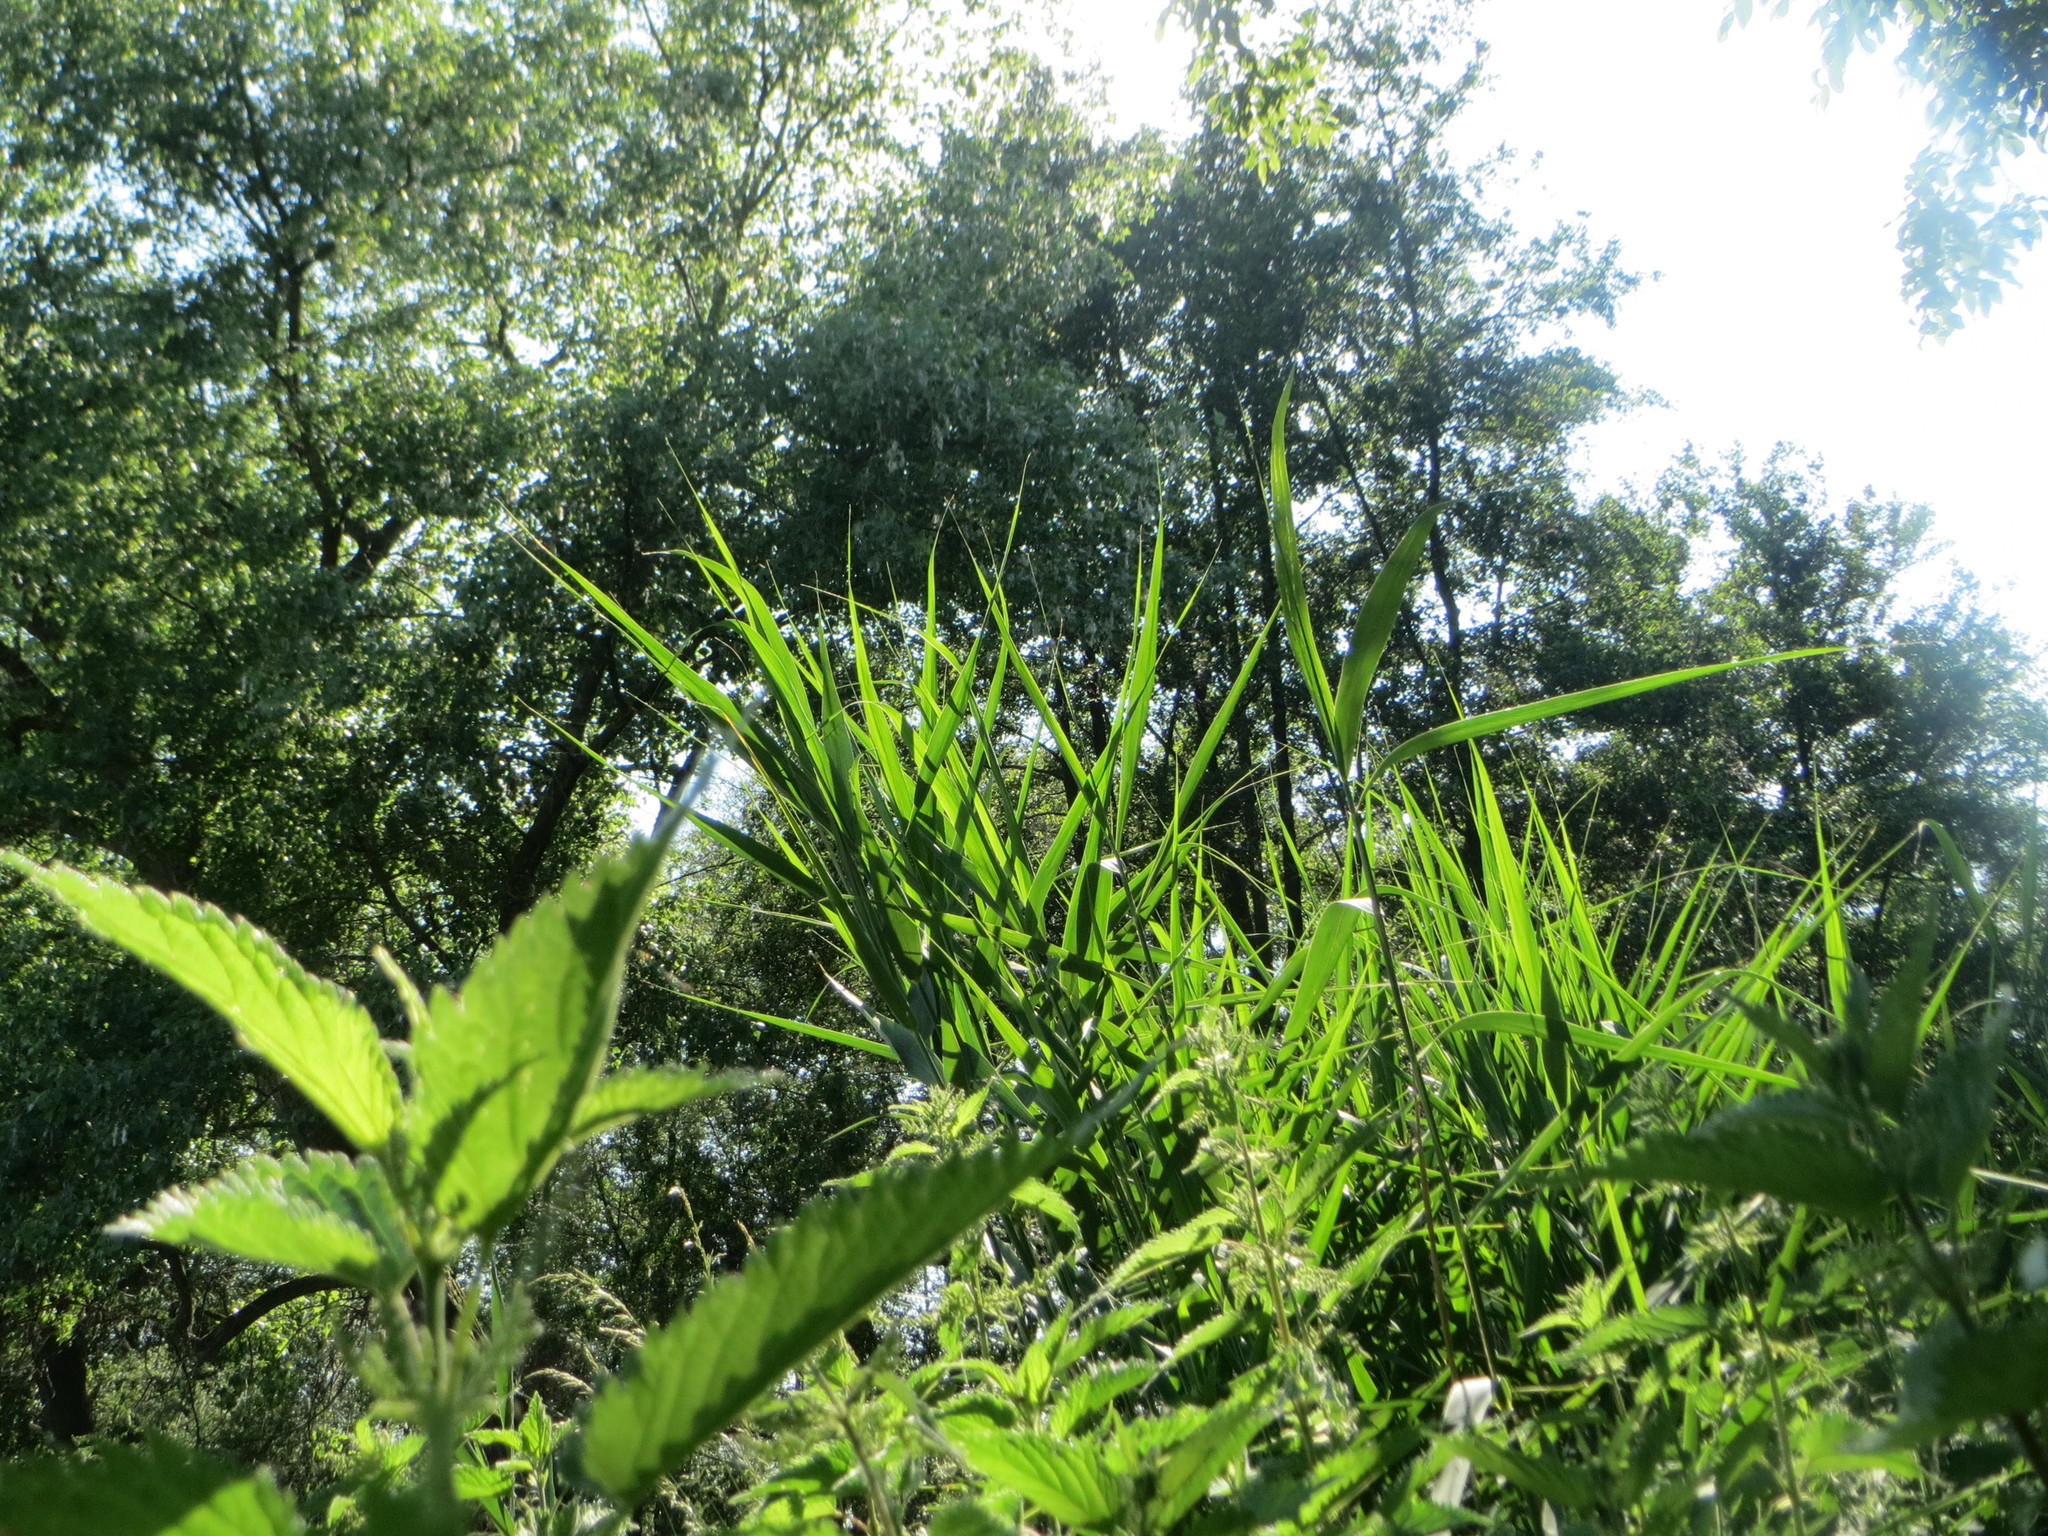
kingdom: Plantae
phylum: Tracheophyta
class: Liliopsida
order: Poales
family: Poaceae
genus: Phragmites
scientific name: Phragmites australis
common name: Common reed
